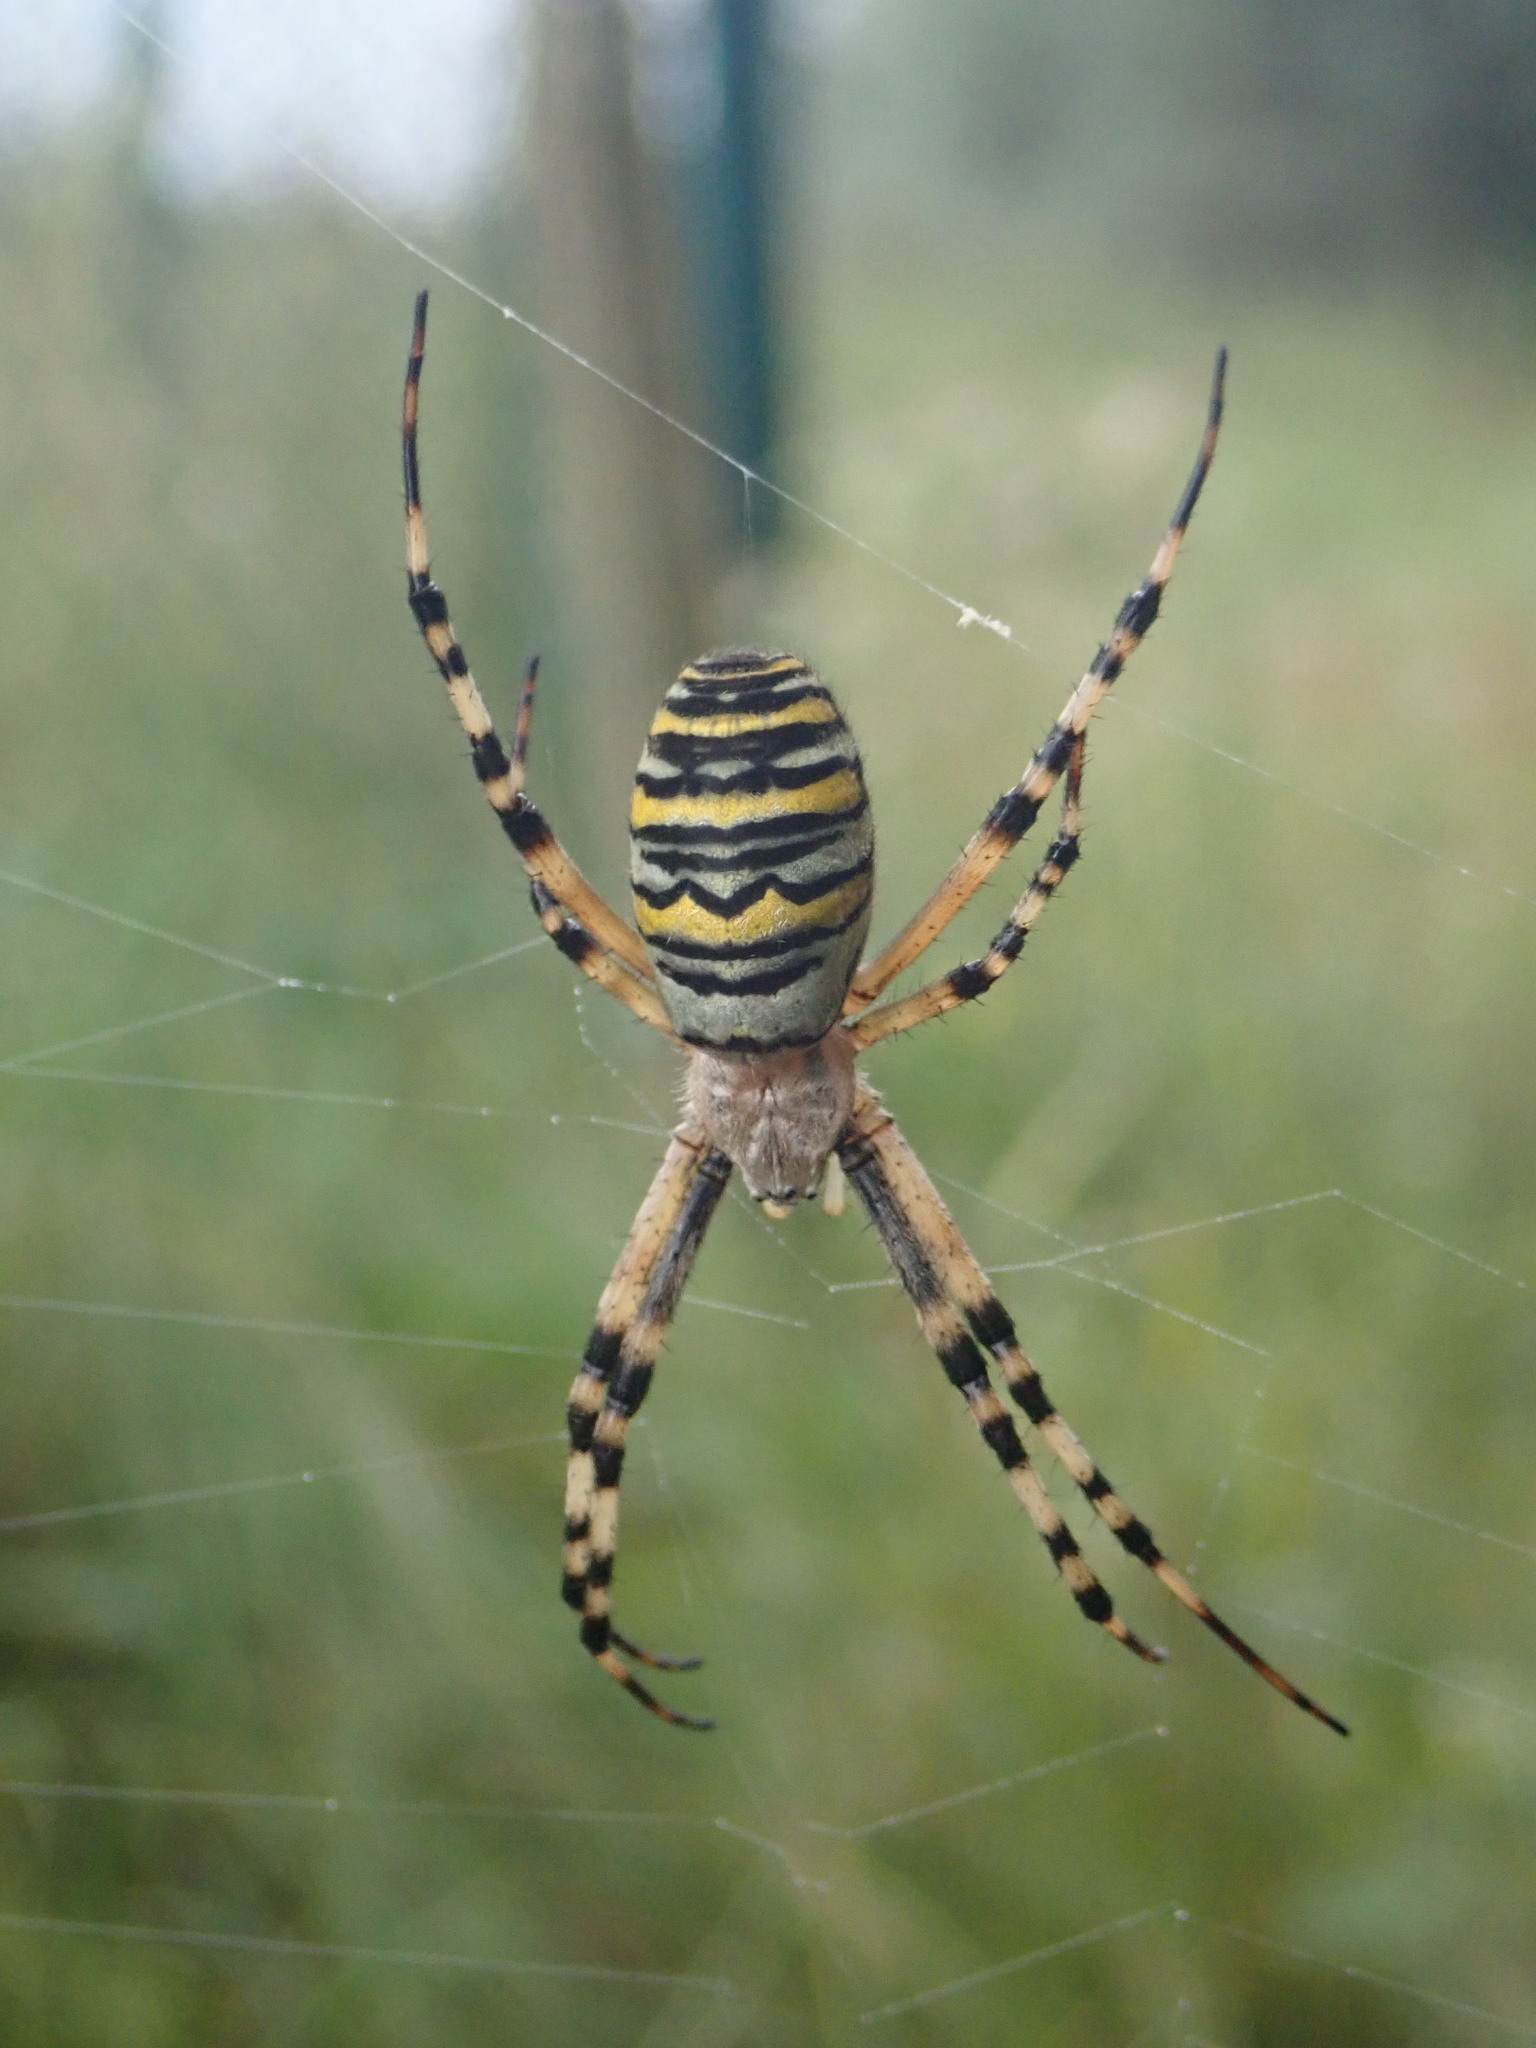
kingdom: Animalia
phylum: Arthropoda
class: Arachnida
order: Araneae
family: Araneidae
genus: Argiope
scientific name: Argiope bruennichi
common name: Wasp spider
